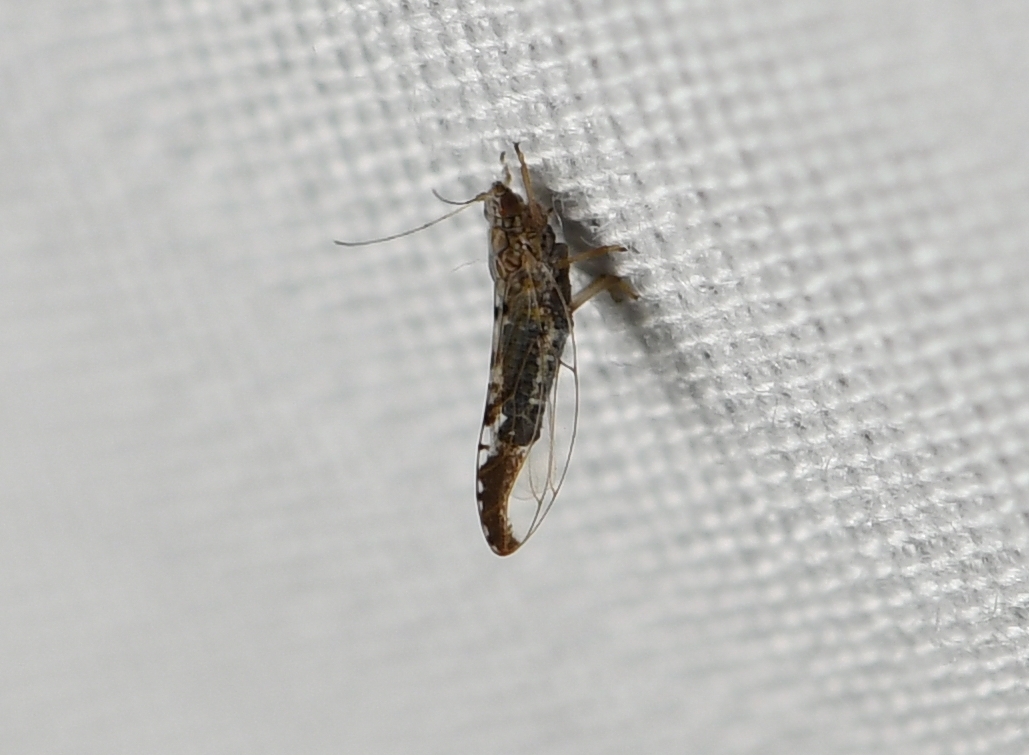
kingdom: Animalia
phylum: Arthropoda
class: Insecta
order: Hemiptera
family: Triozidae
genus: Leuronota
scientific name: Leuronota maculata
